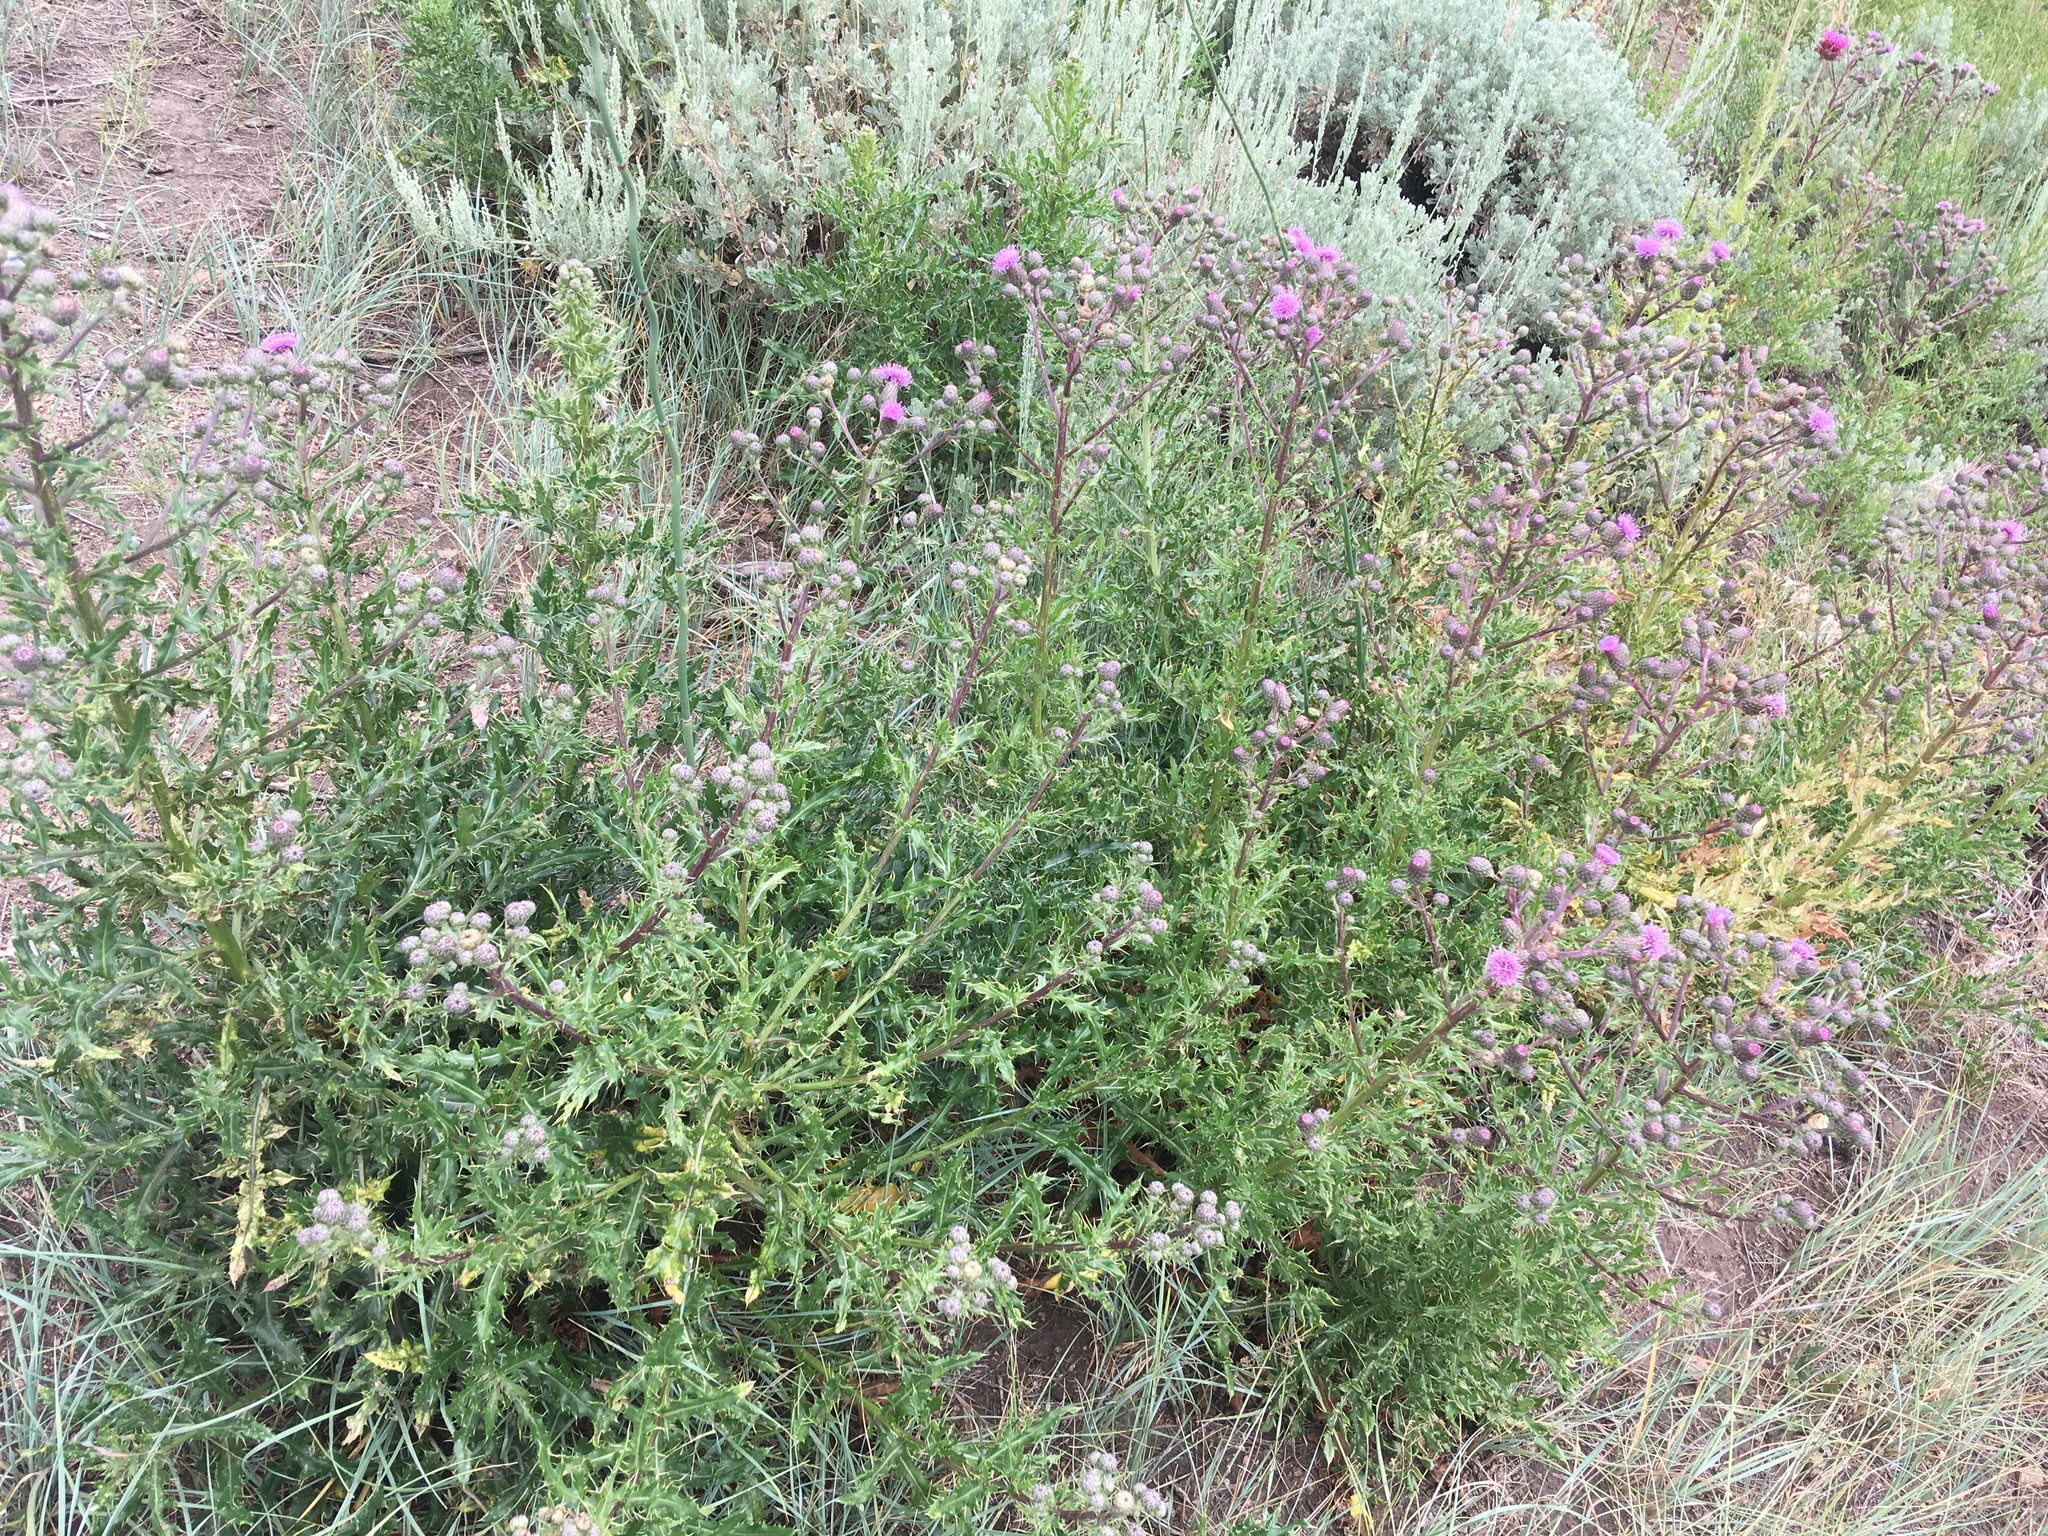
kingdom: Plantae
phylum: Tracheophyta
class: Magnoliopsida
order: Asterales
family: Asteraceae
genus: Cirsium
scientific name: Cirsium arvense
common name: Creeping thistle
